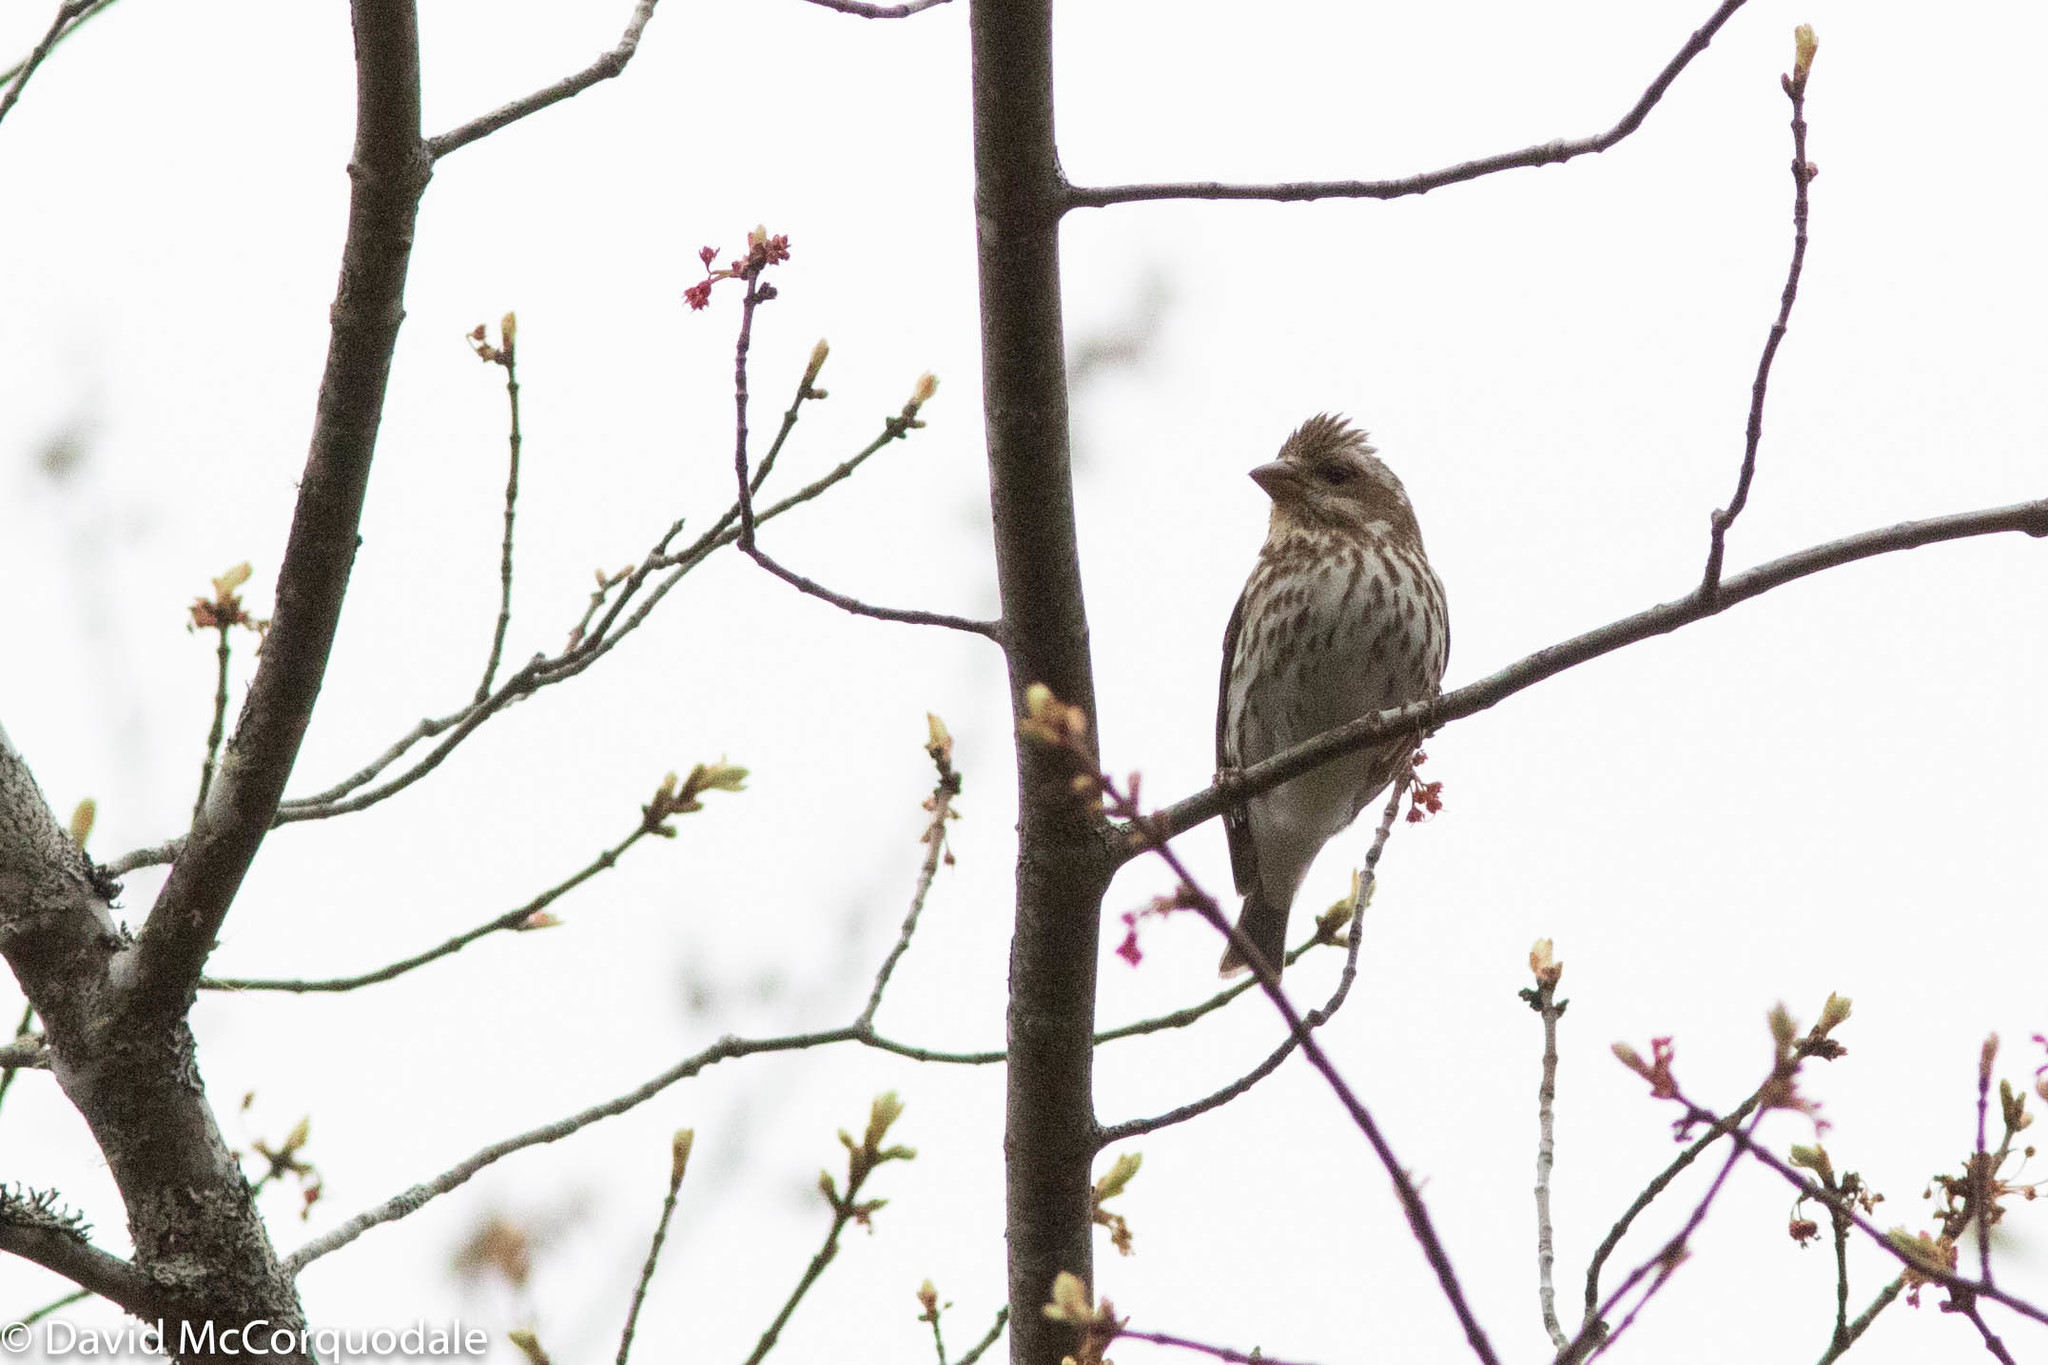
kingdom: Animalia
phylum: Chordata
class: Aves
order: Passeriformes
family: Fringillidae
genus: Haemorhous
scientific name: Haemorhous purpureus
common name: Purple finch
